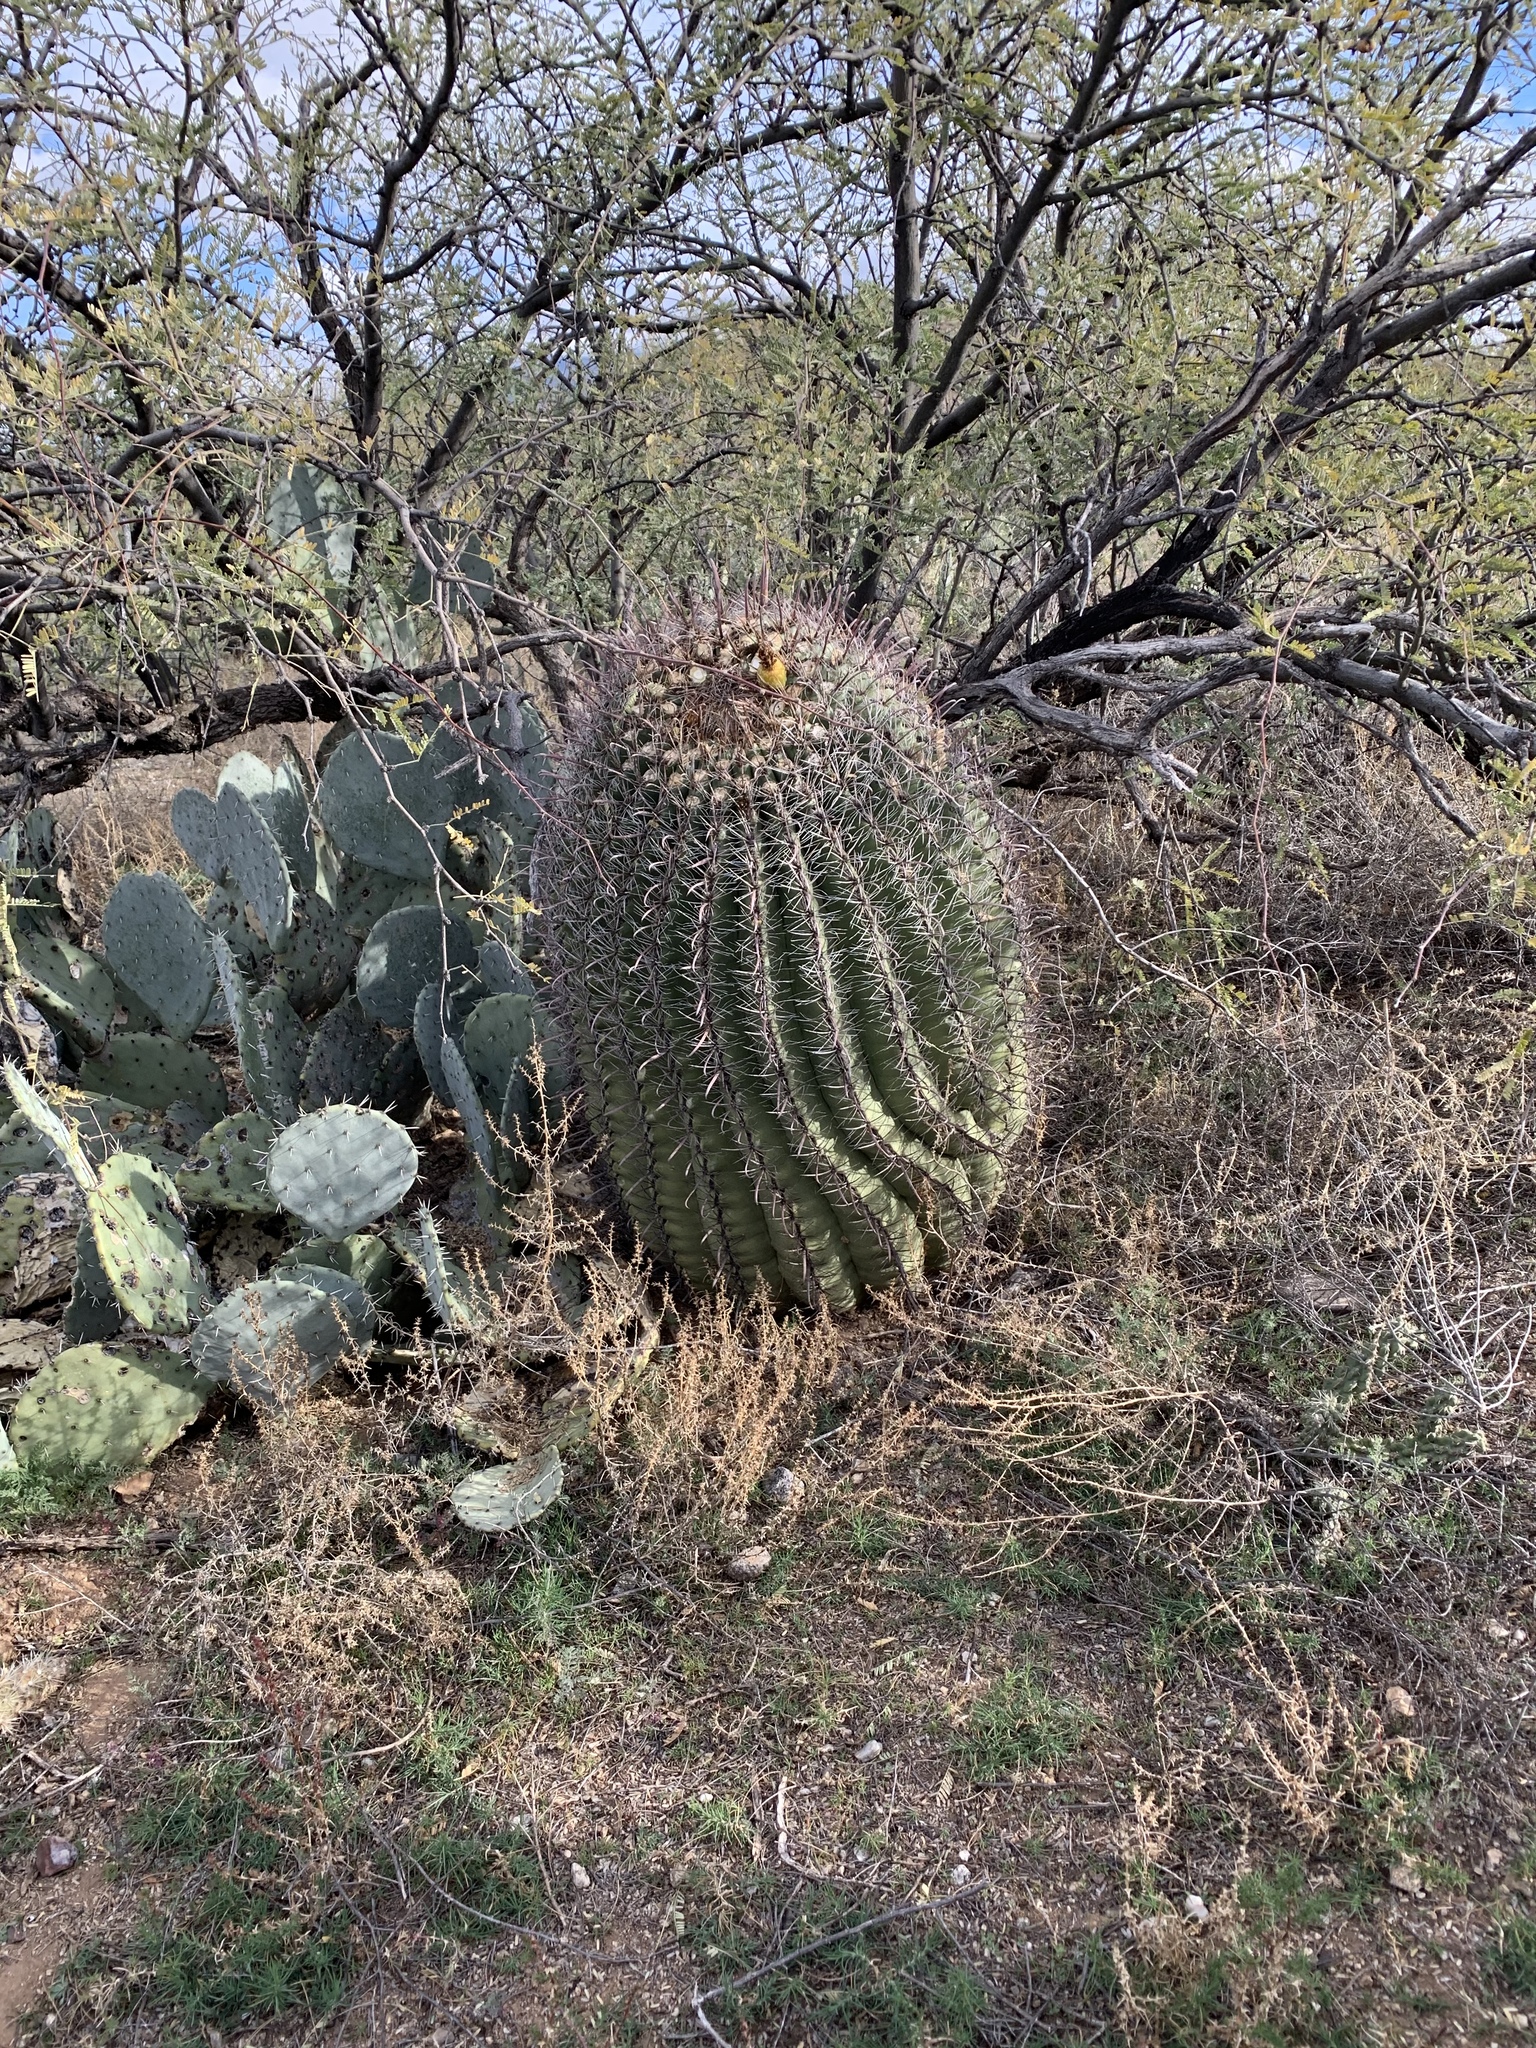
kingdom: Plantae
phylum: Tracheophyta
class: Magnoliopsida
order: Caryophyllales
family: Cactaceae
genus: Ferocactus
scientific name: Ferocactus wislizeni
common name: Candy barrel cactus
